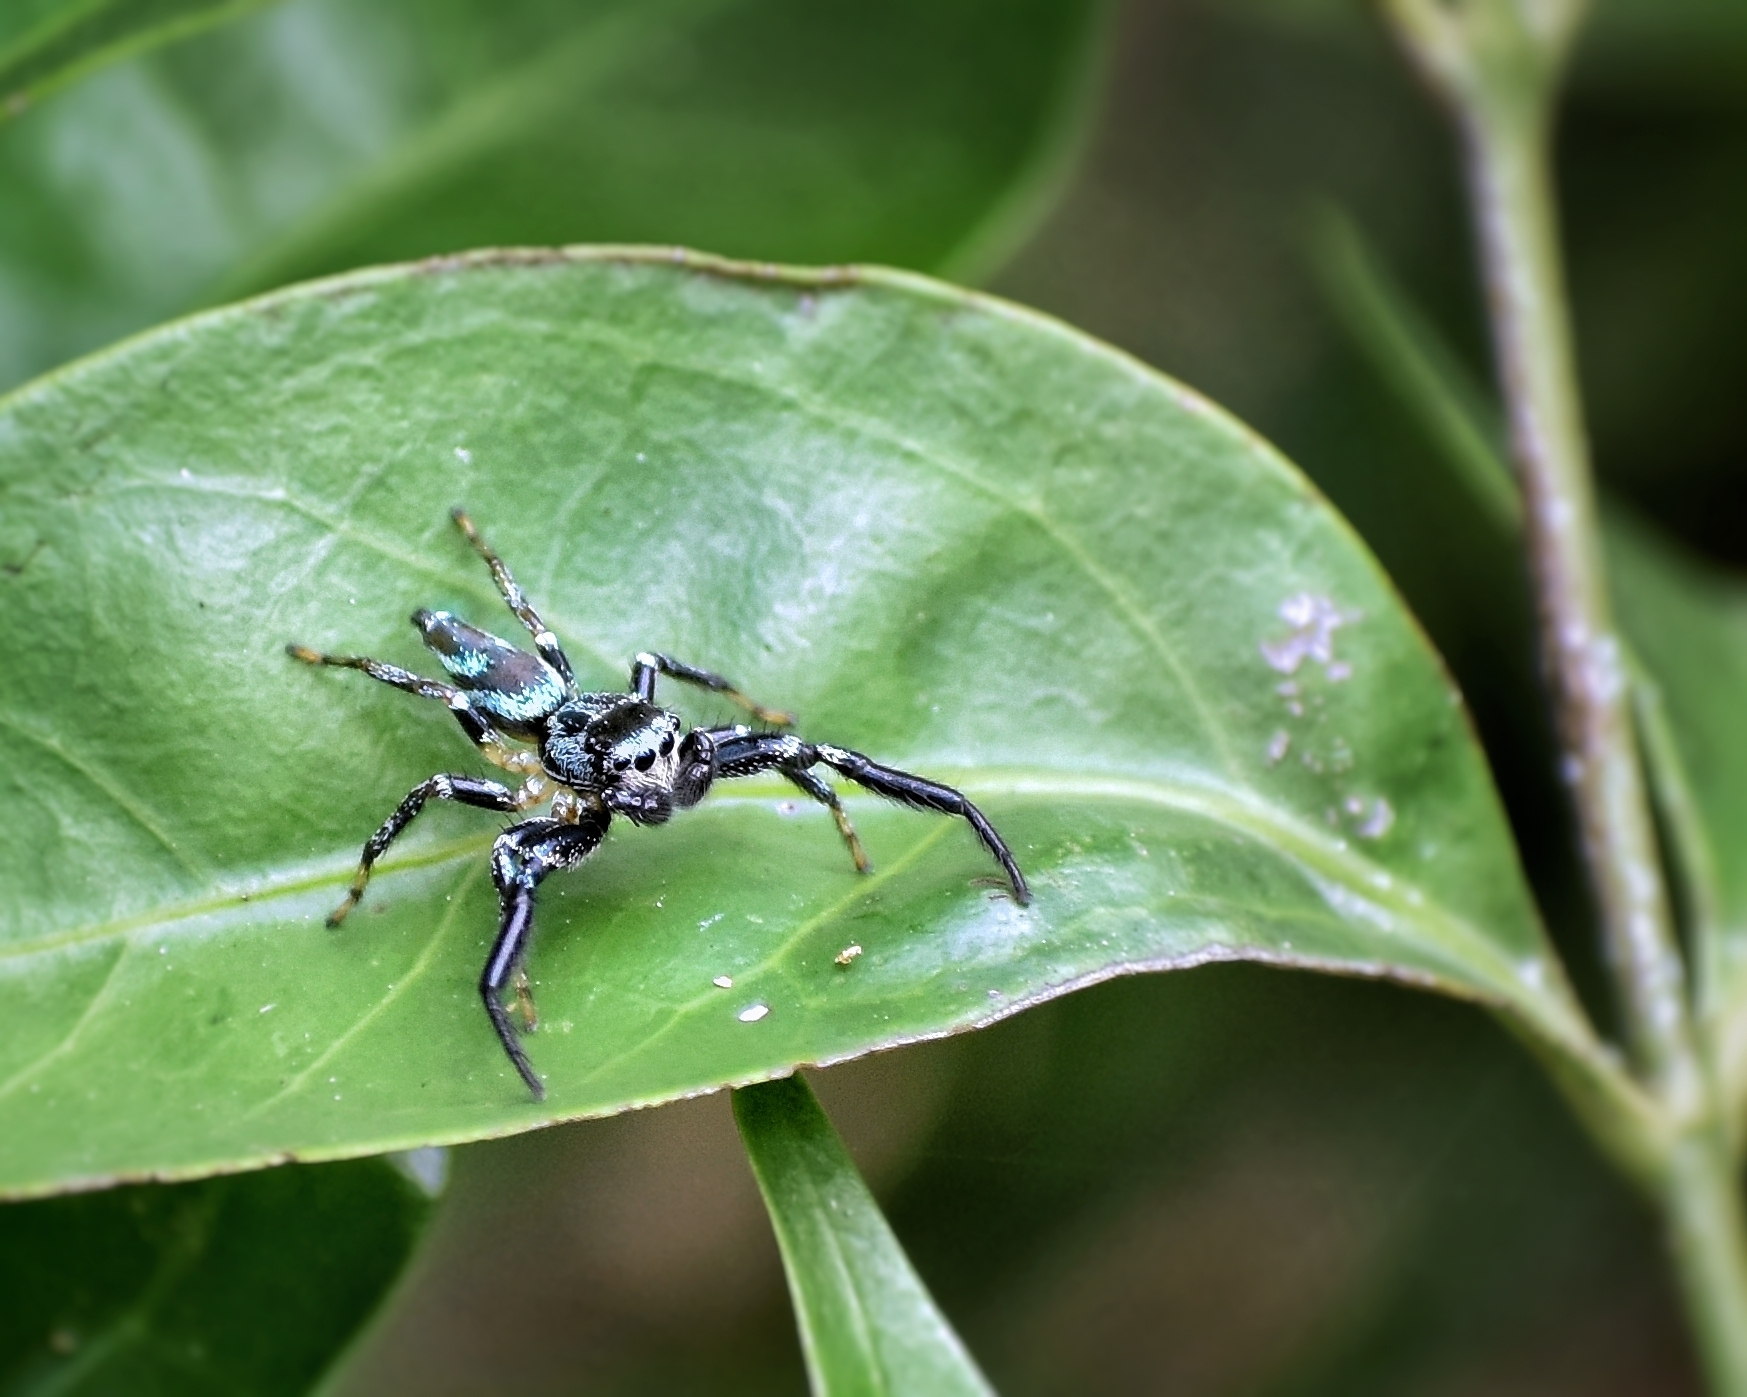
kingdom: Animalia
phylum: Arthropoda
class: Arachnida
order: Araneae
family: Salticidae
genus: Thiania
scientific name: Thiania bhamoensis
